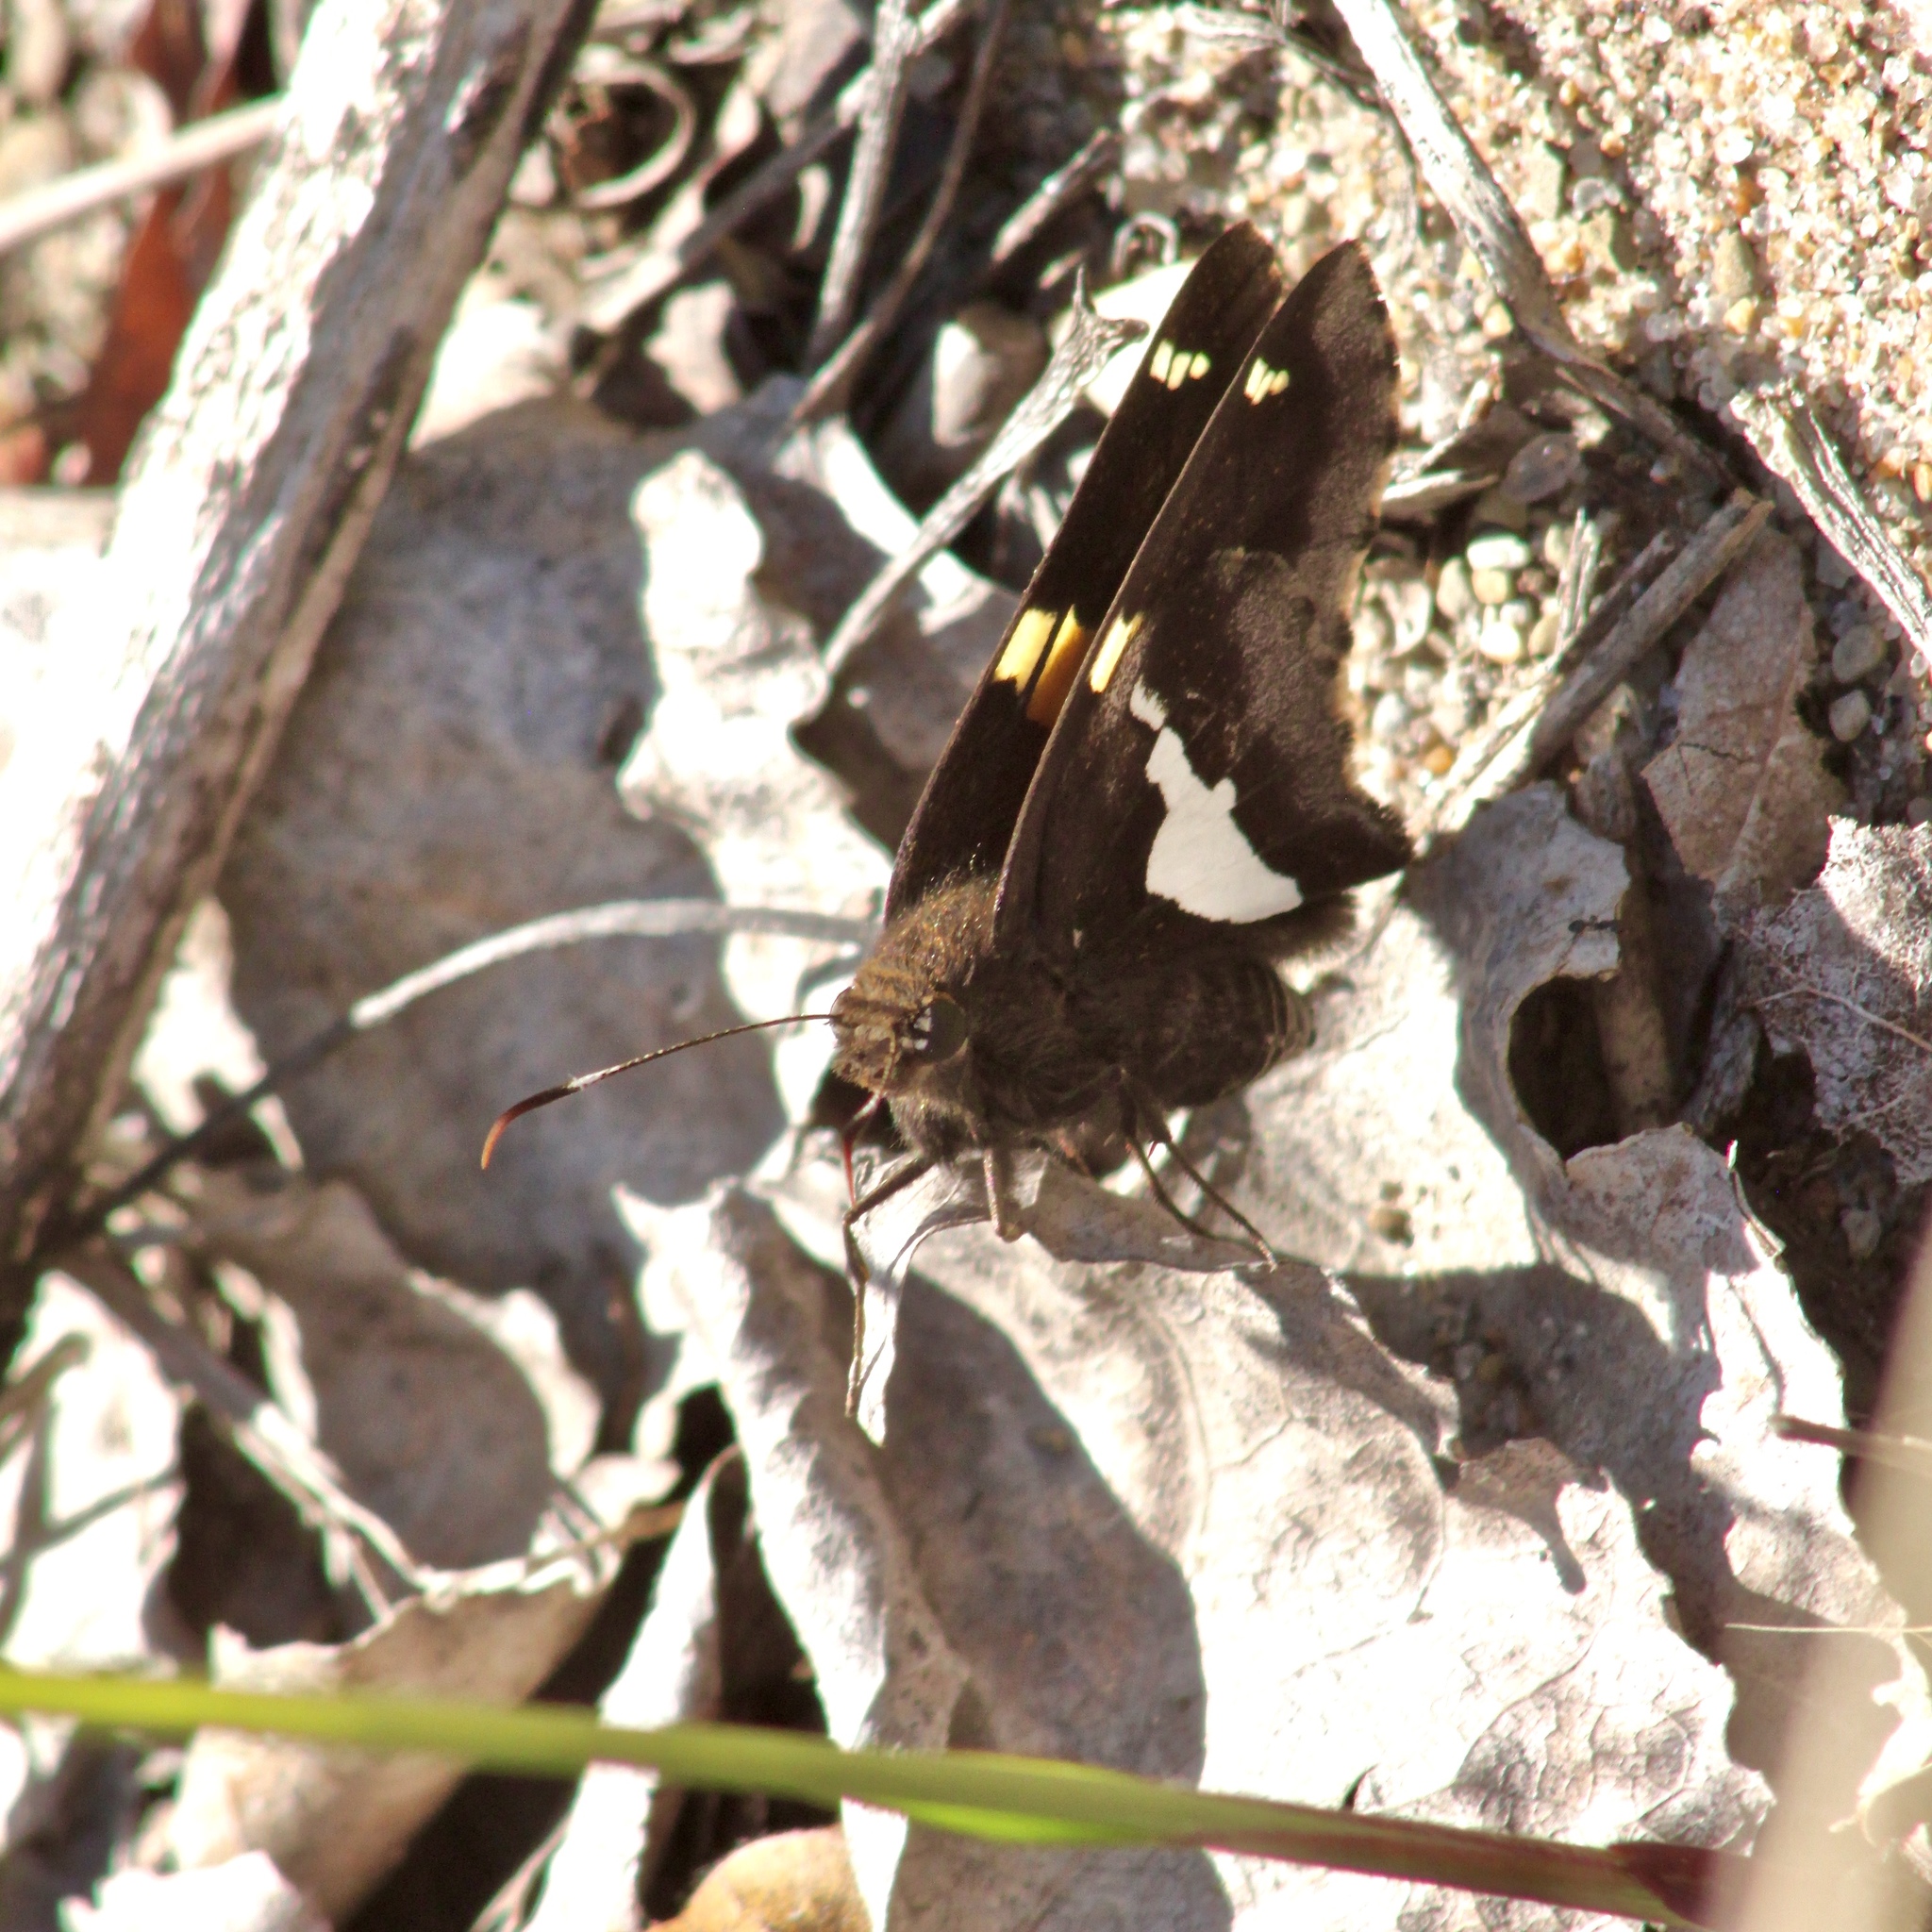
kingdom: Animalia
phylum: Arthropoda
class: Insecta
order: Lepidoptera
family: Hesperiidae
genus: Epargyreus
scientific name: Epargyreus clarus
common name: Silver-spotted skipper
